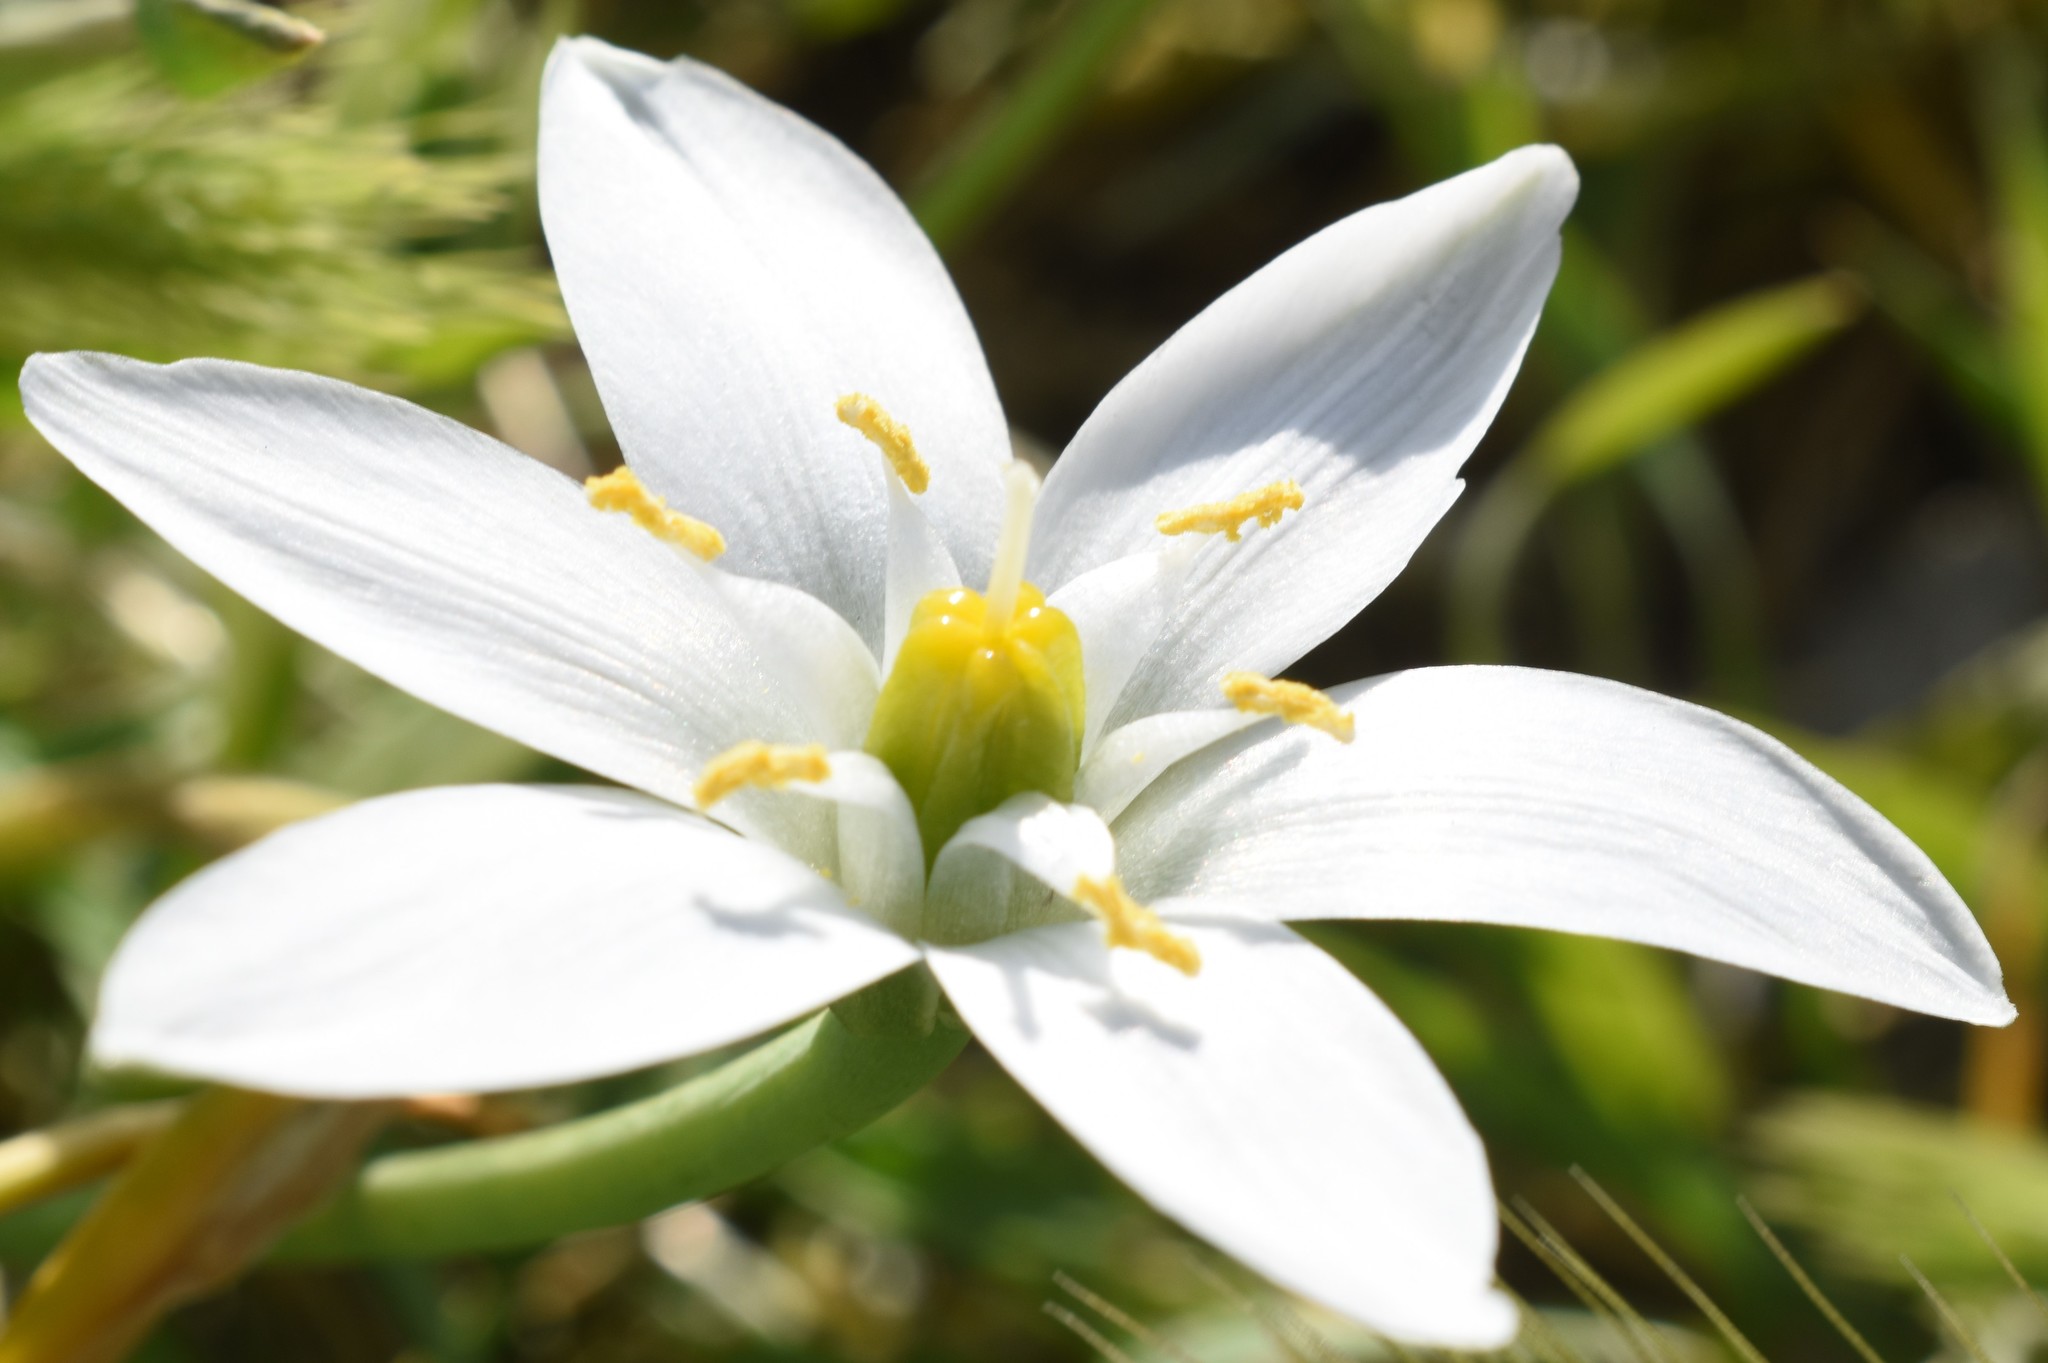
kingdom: Plantae
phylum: Tracheophyta
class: Liliopsida
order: Asparagales
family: Asparagaceae
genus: Ornithogalum
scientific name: Ornithogalum umbellatum
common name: Garden star-of-bethlehem
